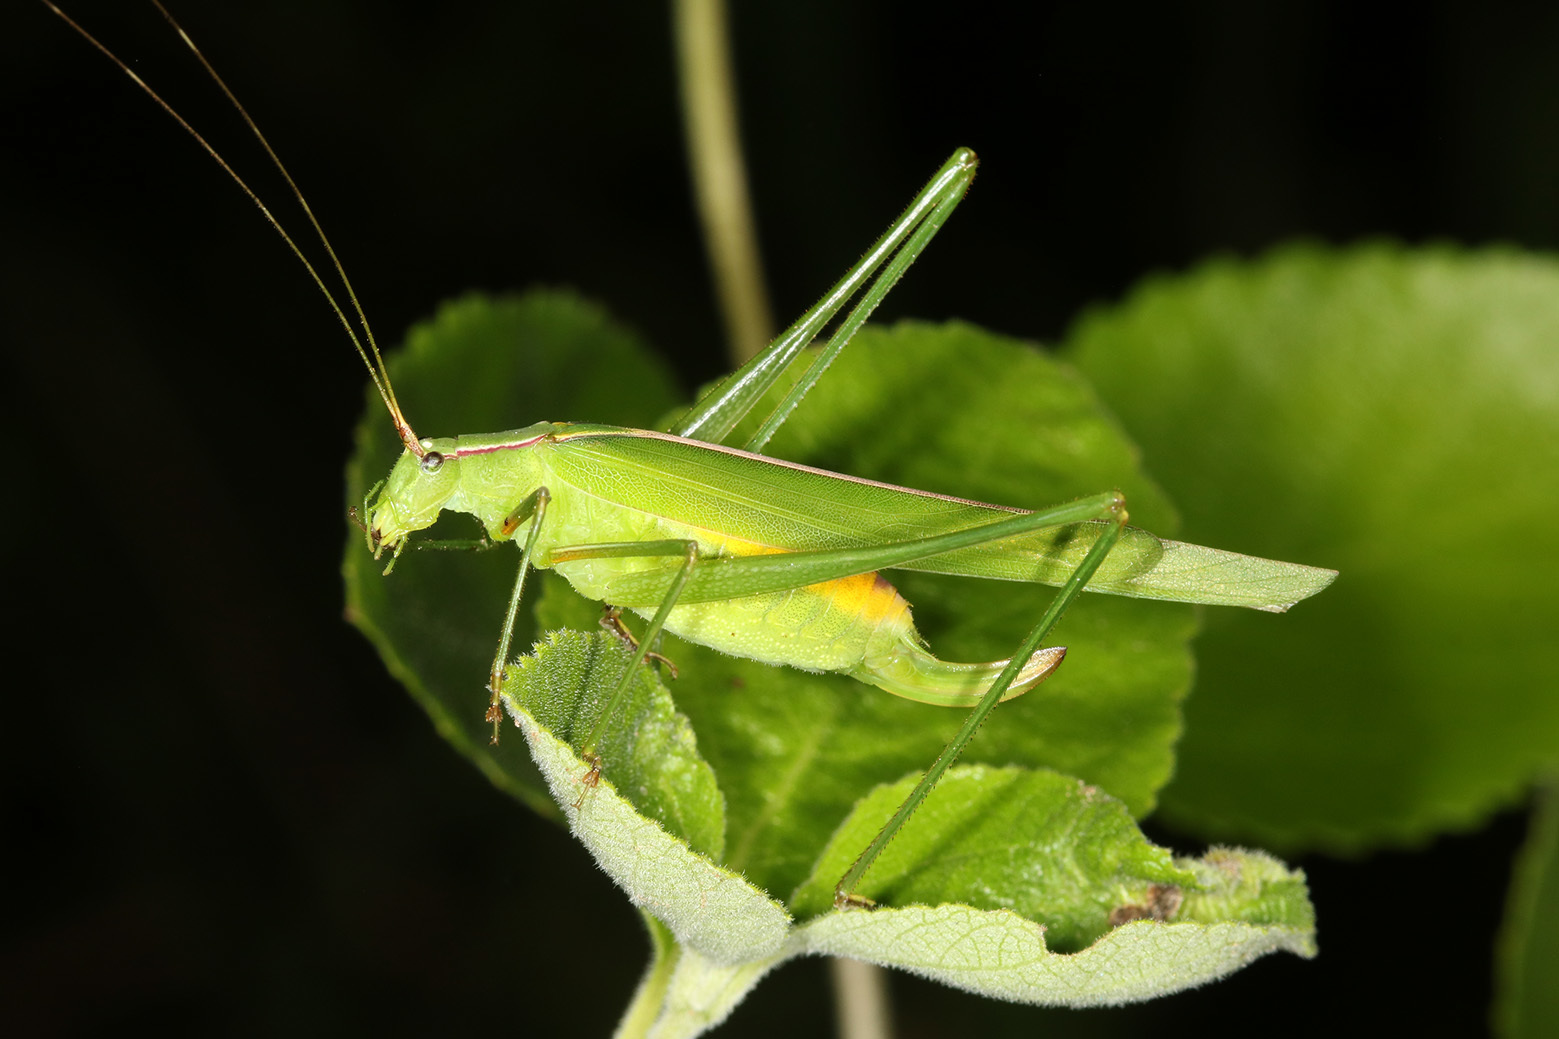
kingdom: Animalia
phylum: Arthropoda
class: Insecta
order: Orthoptera
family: Tettigoniidae
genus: Hyperophora
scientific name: Hyperophora angustipennis
